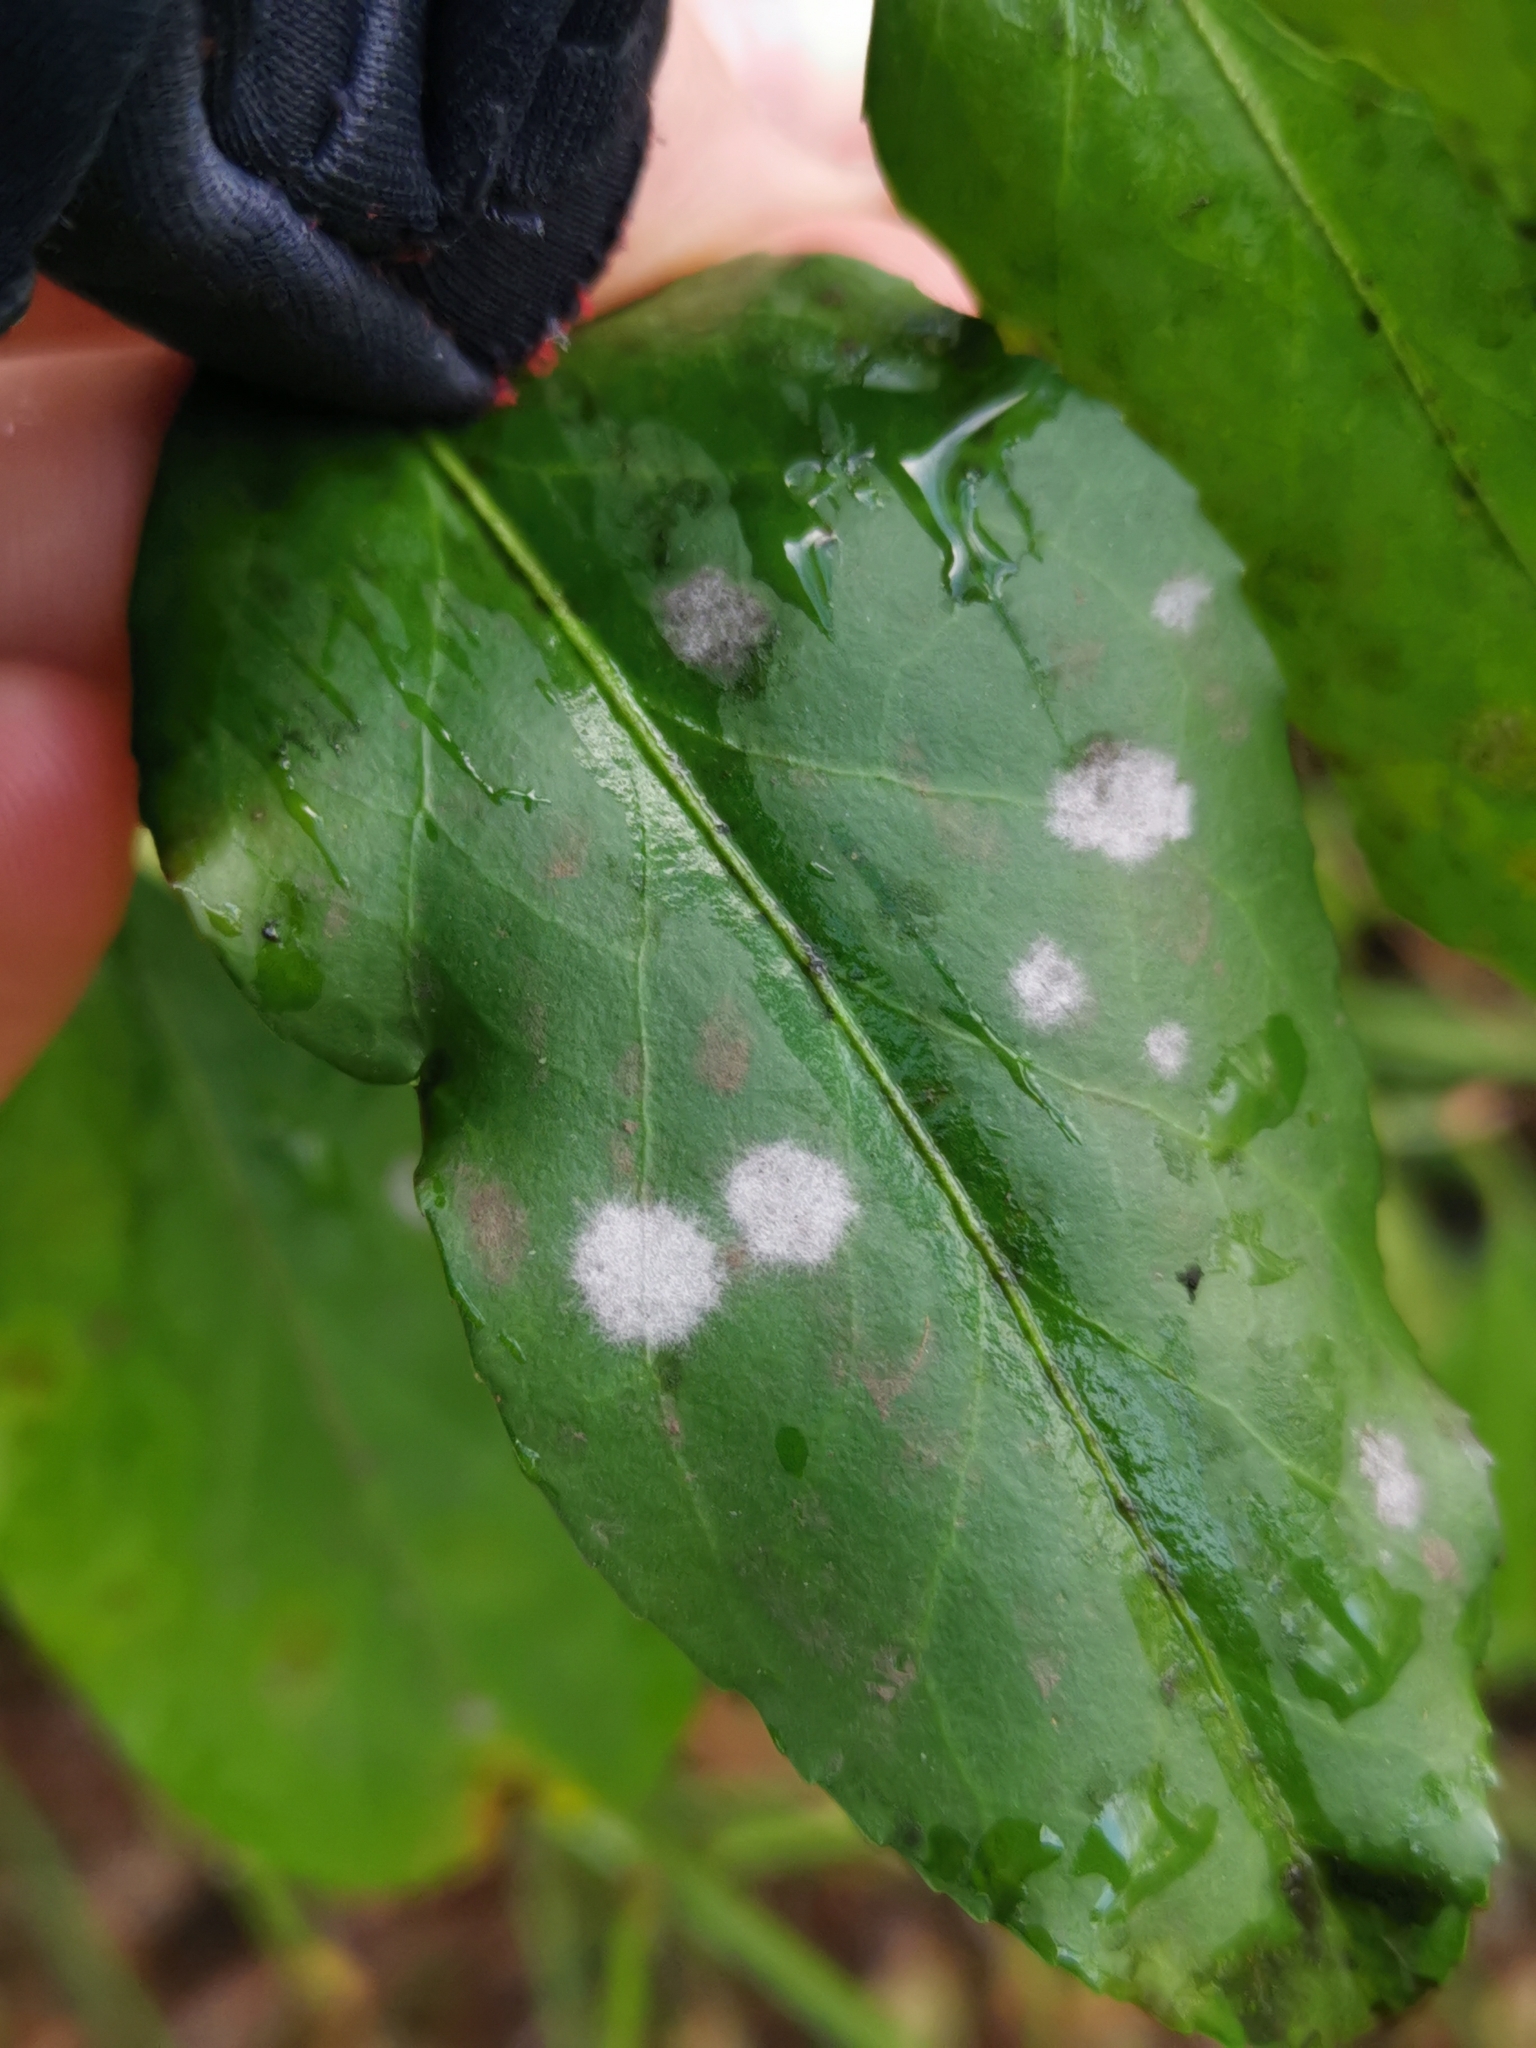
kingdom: Fungi
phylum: Ascomycota
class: Leotiomycetes
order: Helotiales
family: Erysiphaceae
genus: Erysiphe
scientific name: Erysiphe euonymicola
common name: Spindletree mildew
